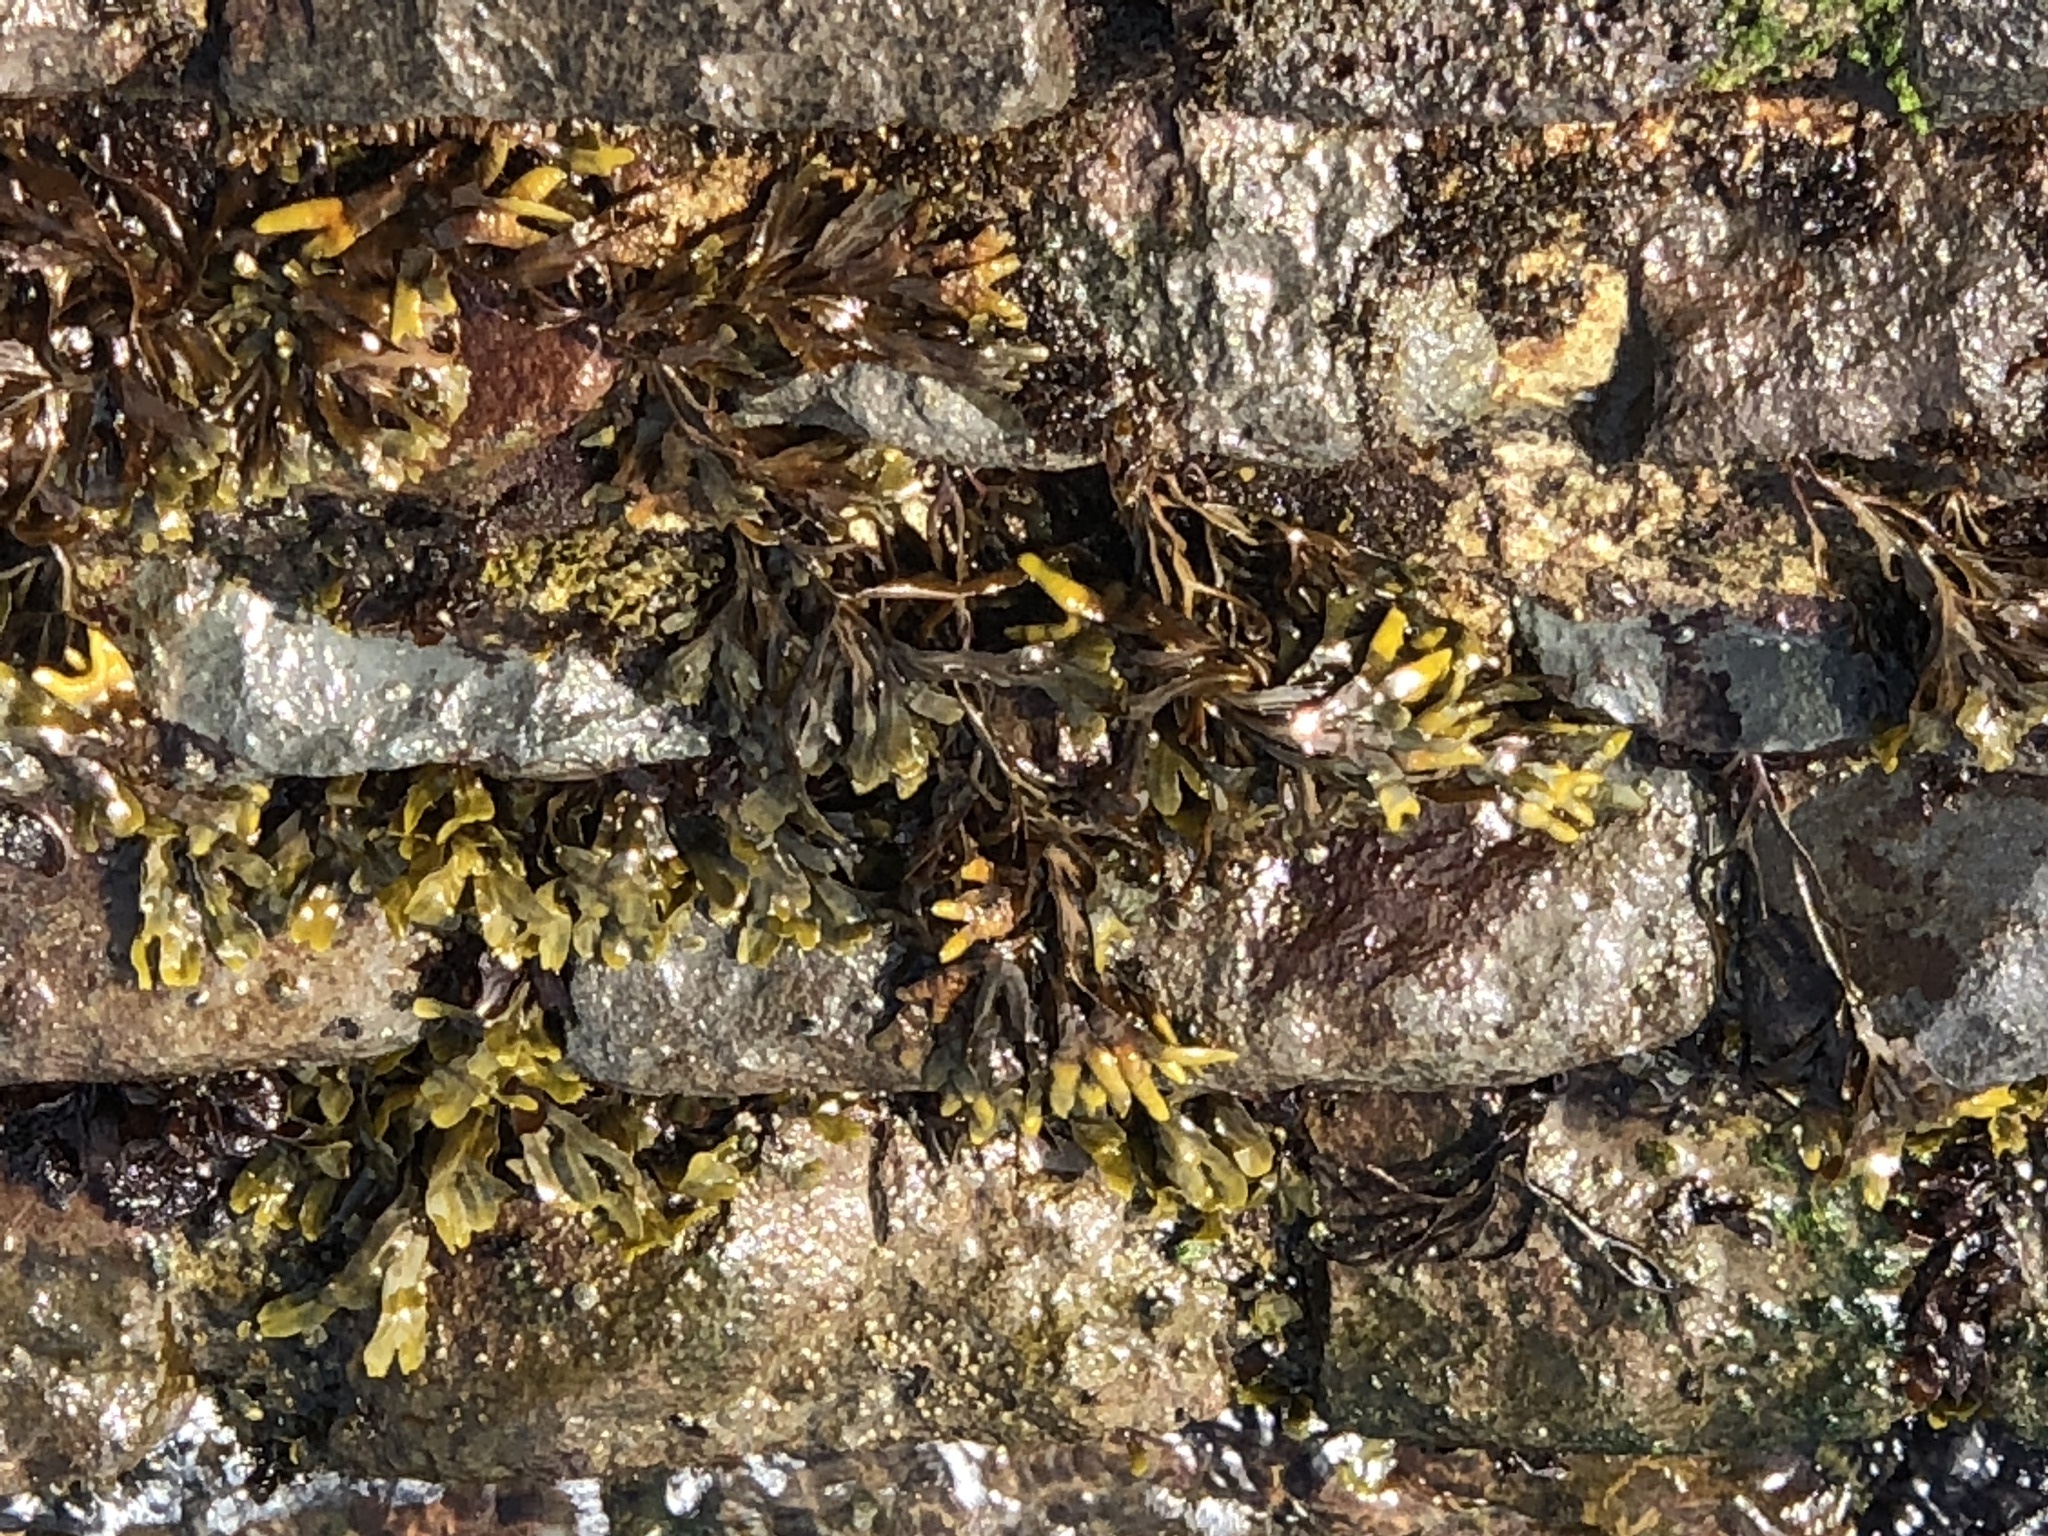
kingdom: Chromista
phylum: Ochrophyta
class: Phaeophyceae
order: Fucales
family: Fucaceae
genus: Fucus
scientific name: Fucus distichus
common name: Rockweed
